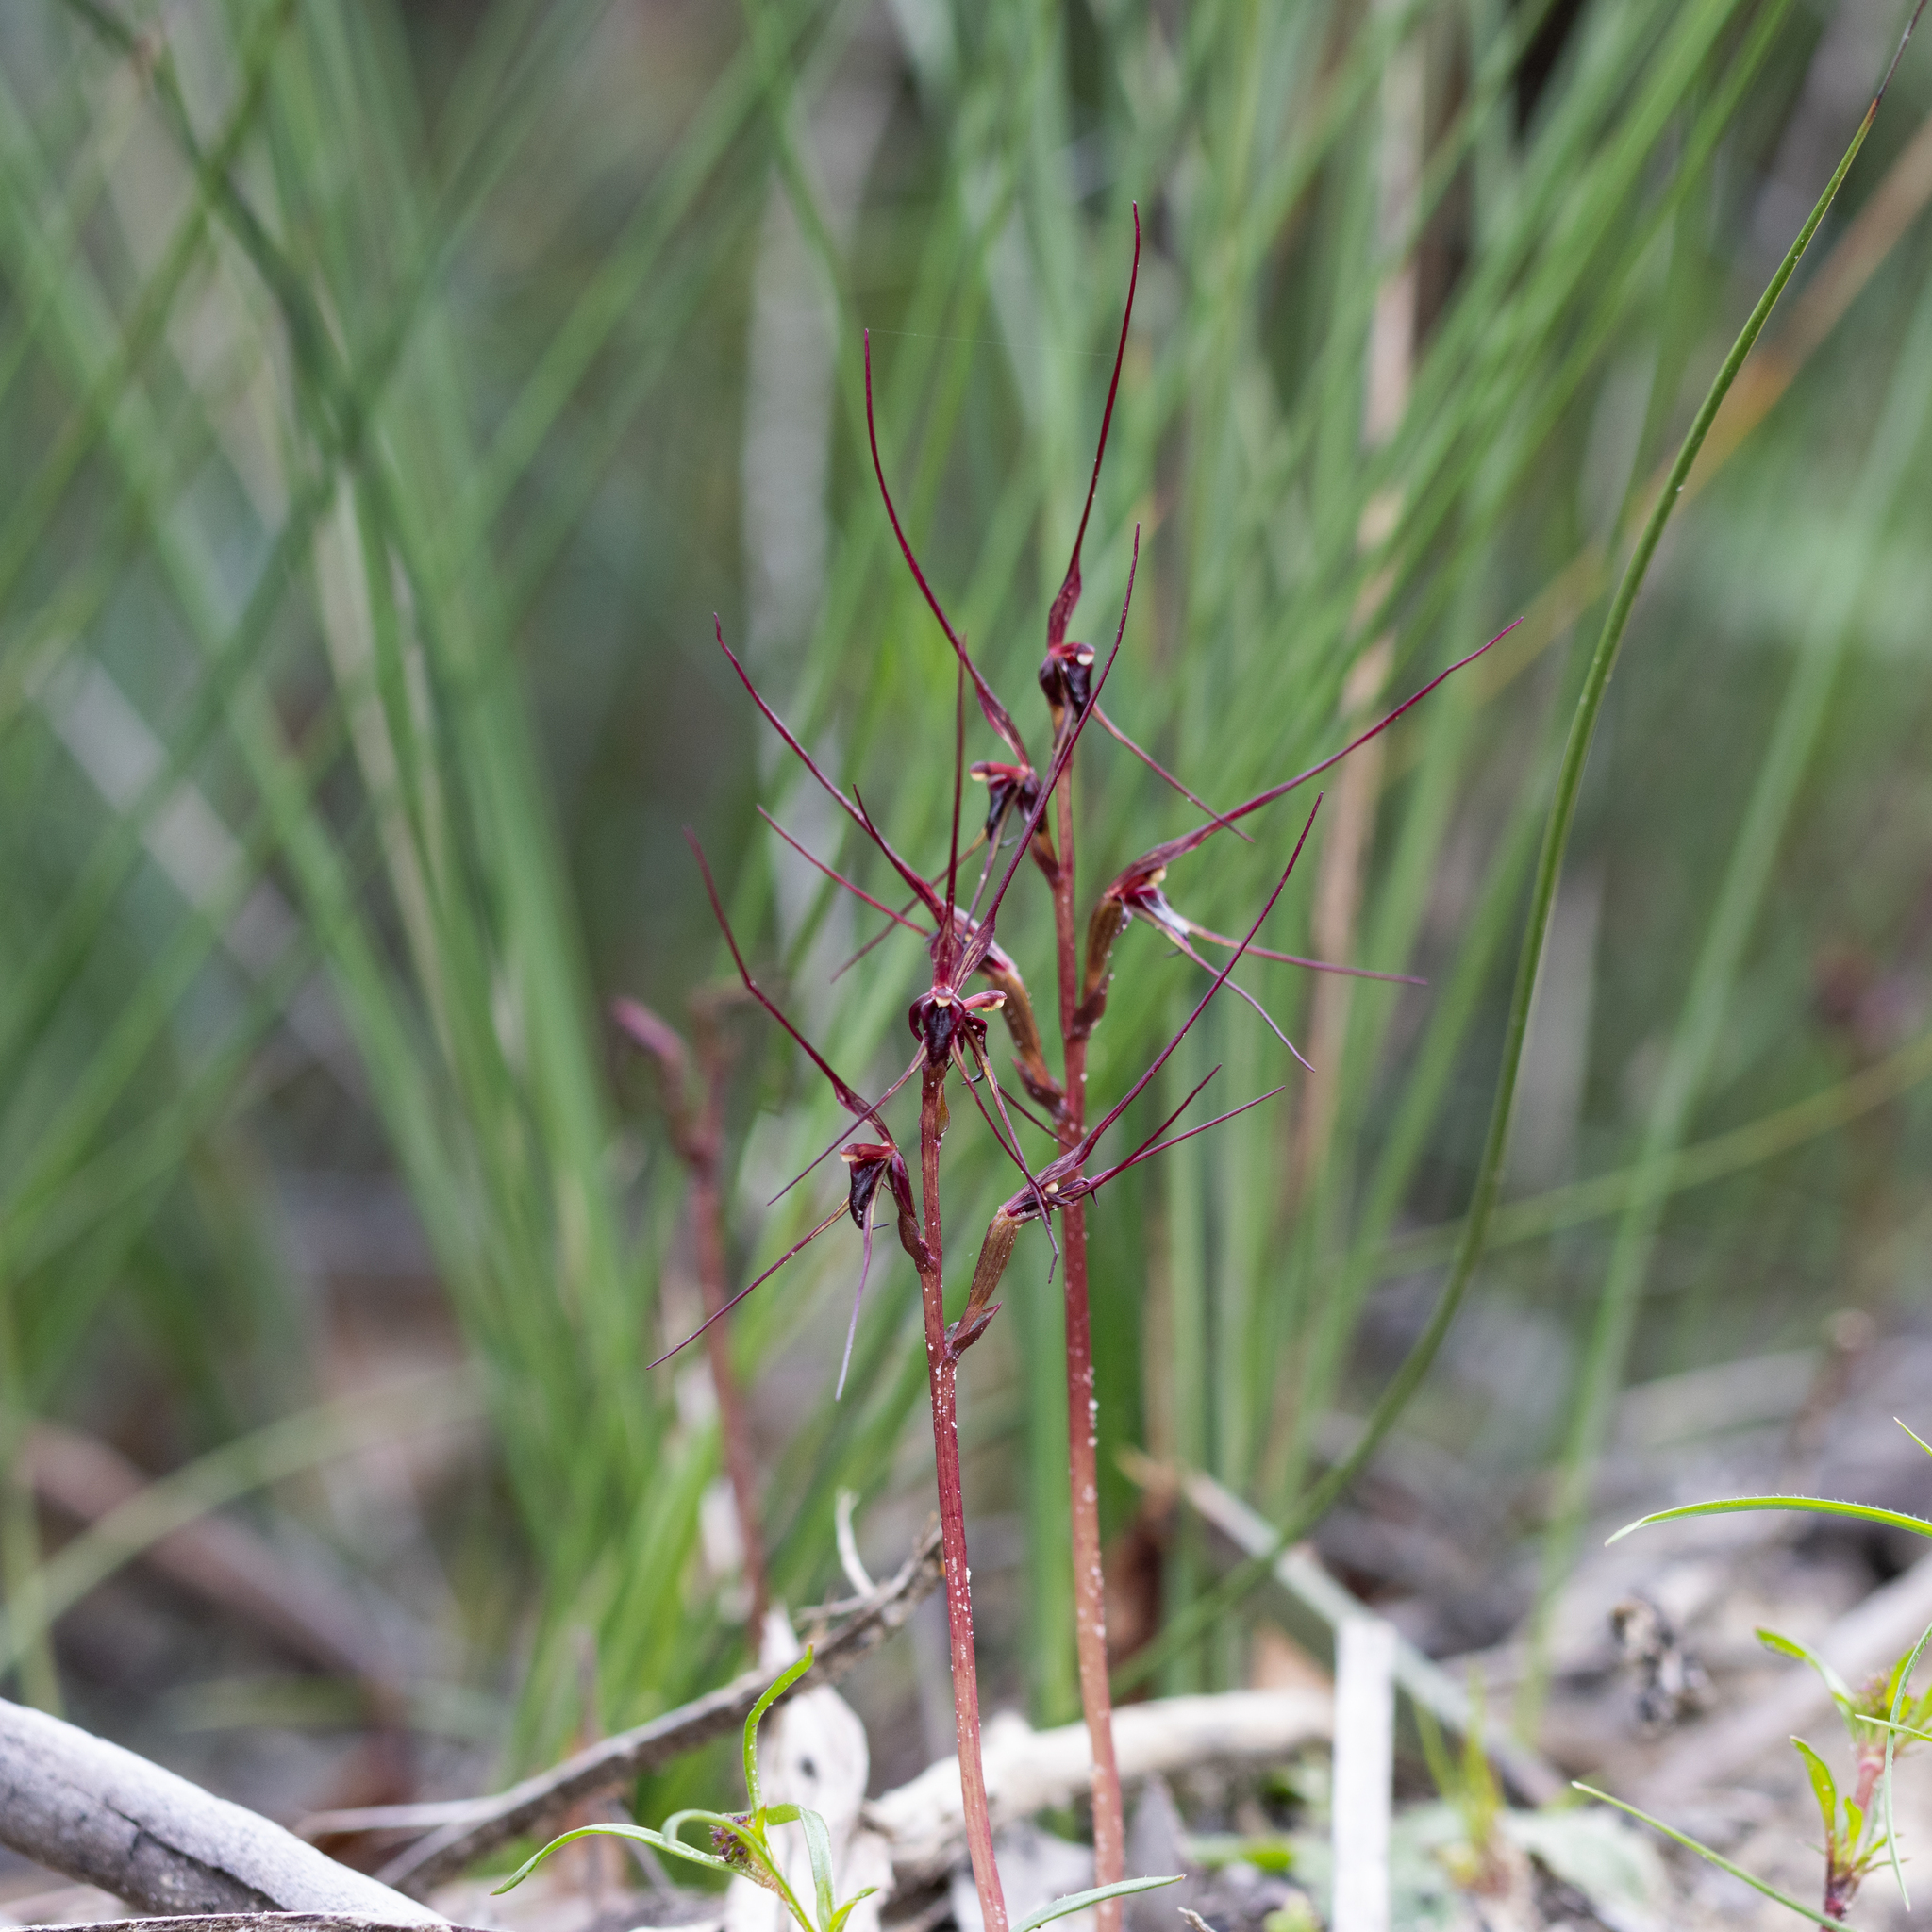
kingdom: Plantae
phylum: Tracheophyta
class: Liliopsida
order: Asparagales
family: Orchidaceae
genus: Acianthus
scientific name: Acianthus caudatus
